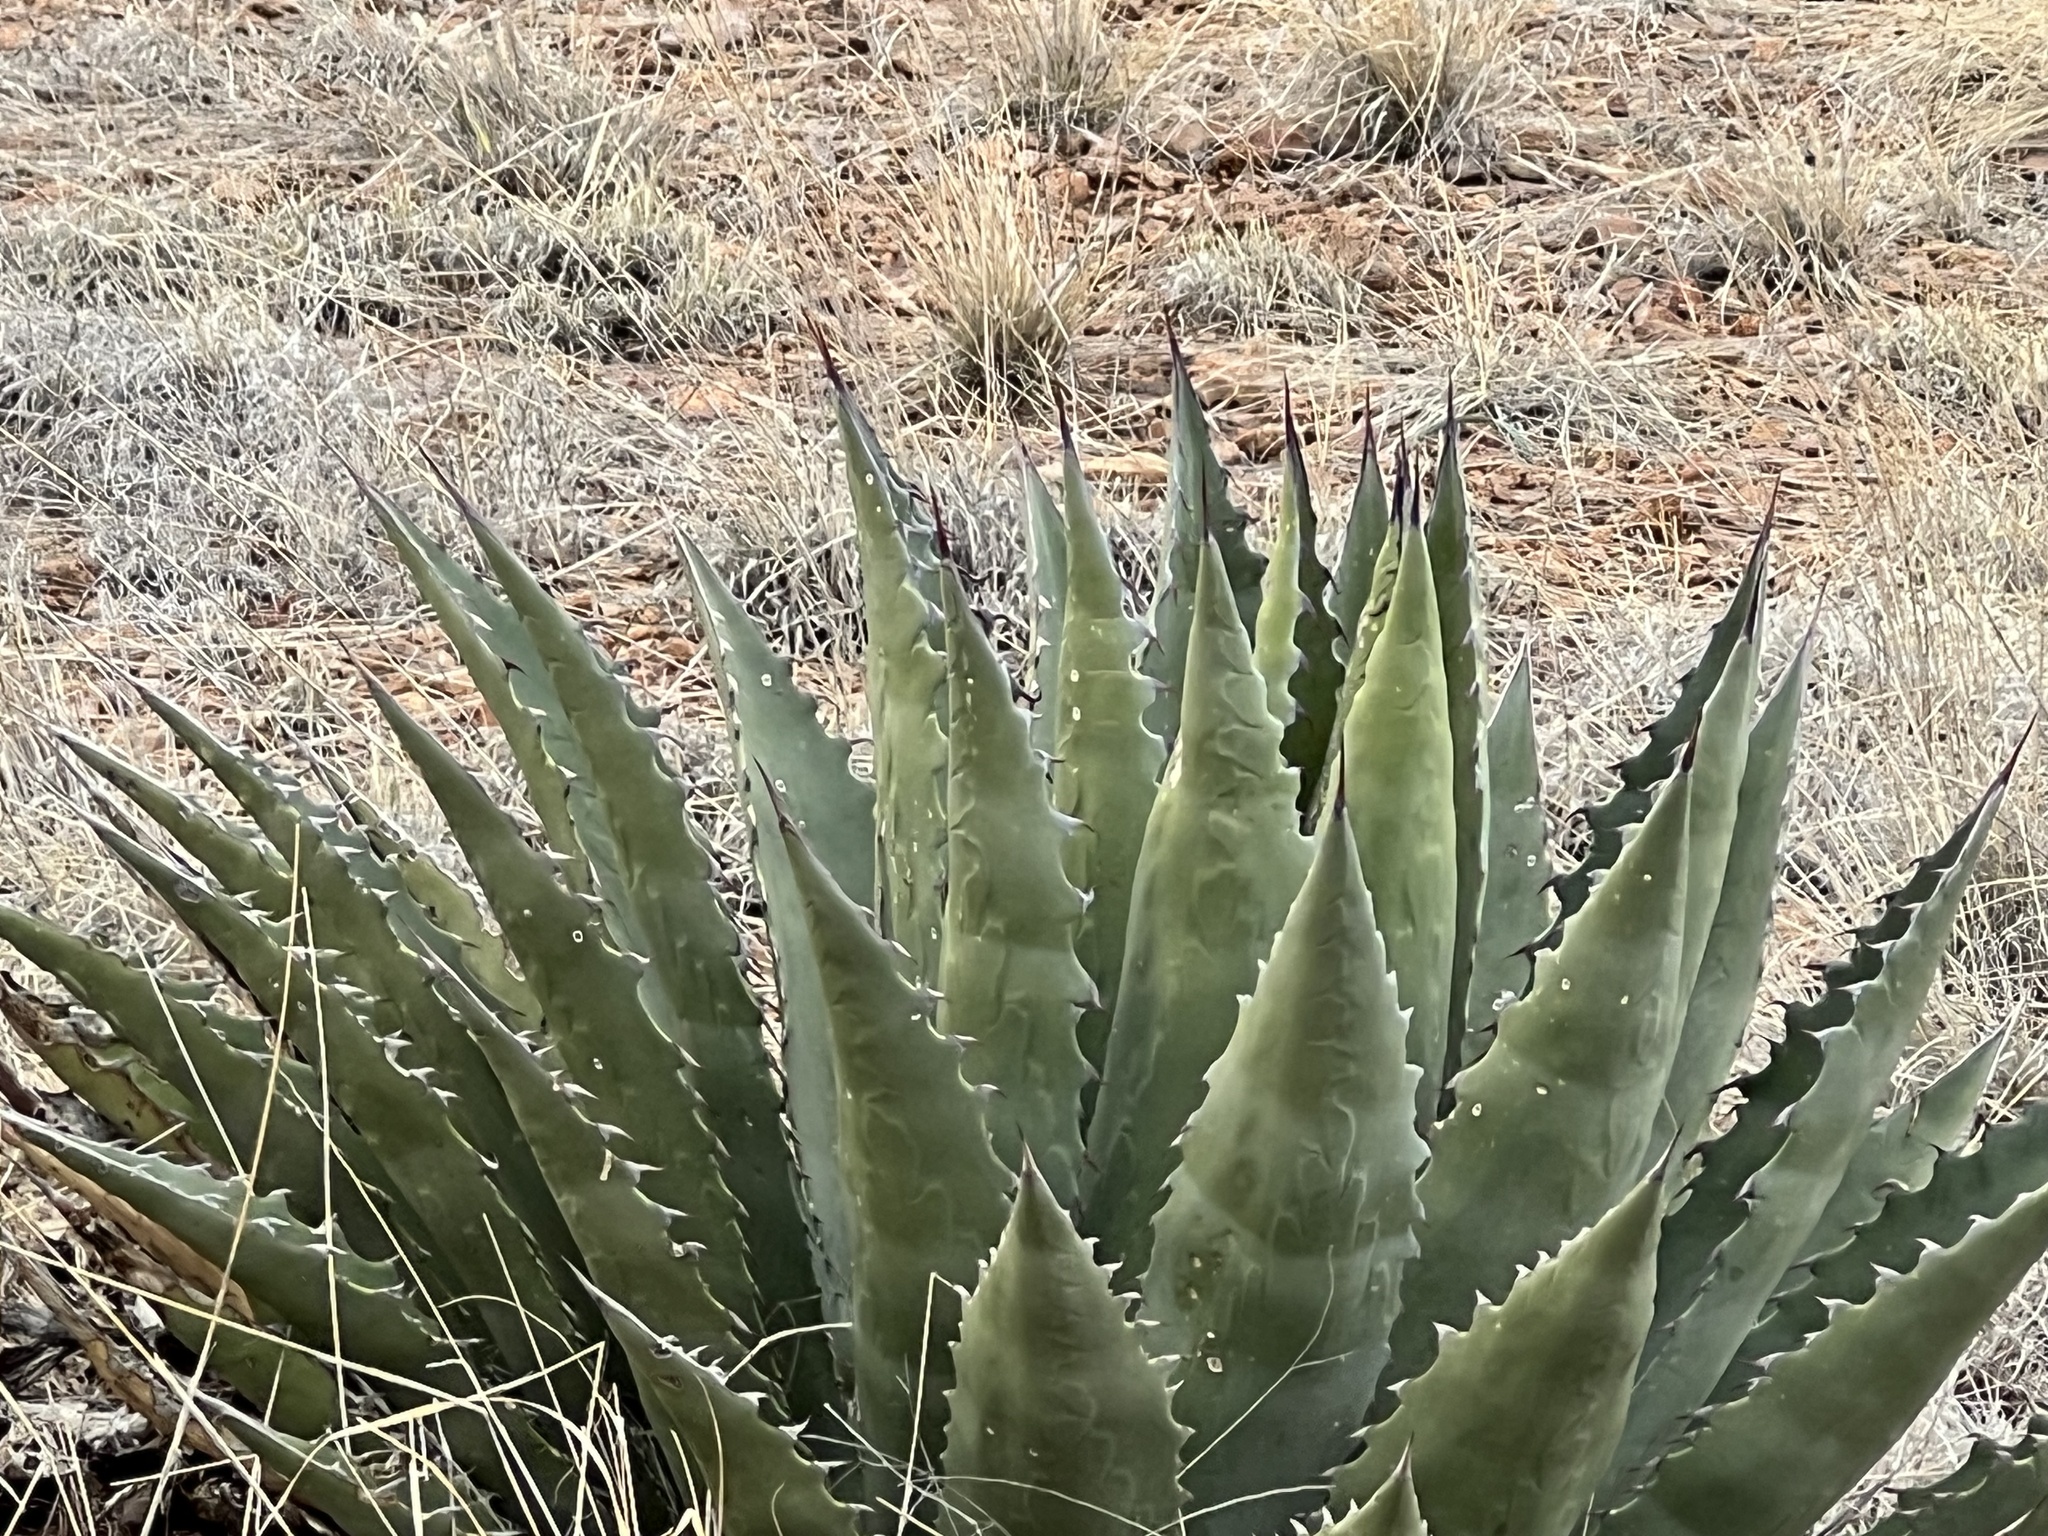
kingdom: Plantae
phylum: Tracheophyta
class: Liliopsida
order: Asparagales
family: Asparagaceae
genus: Agave
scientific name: Agave palmeri
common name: Palmer agave
